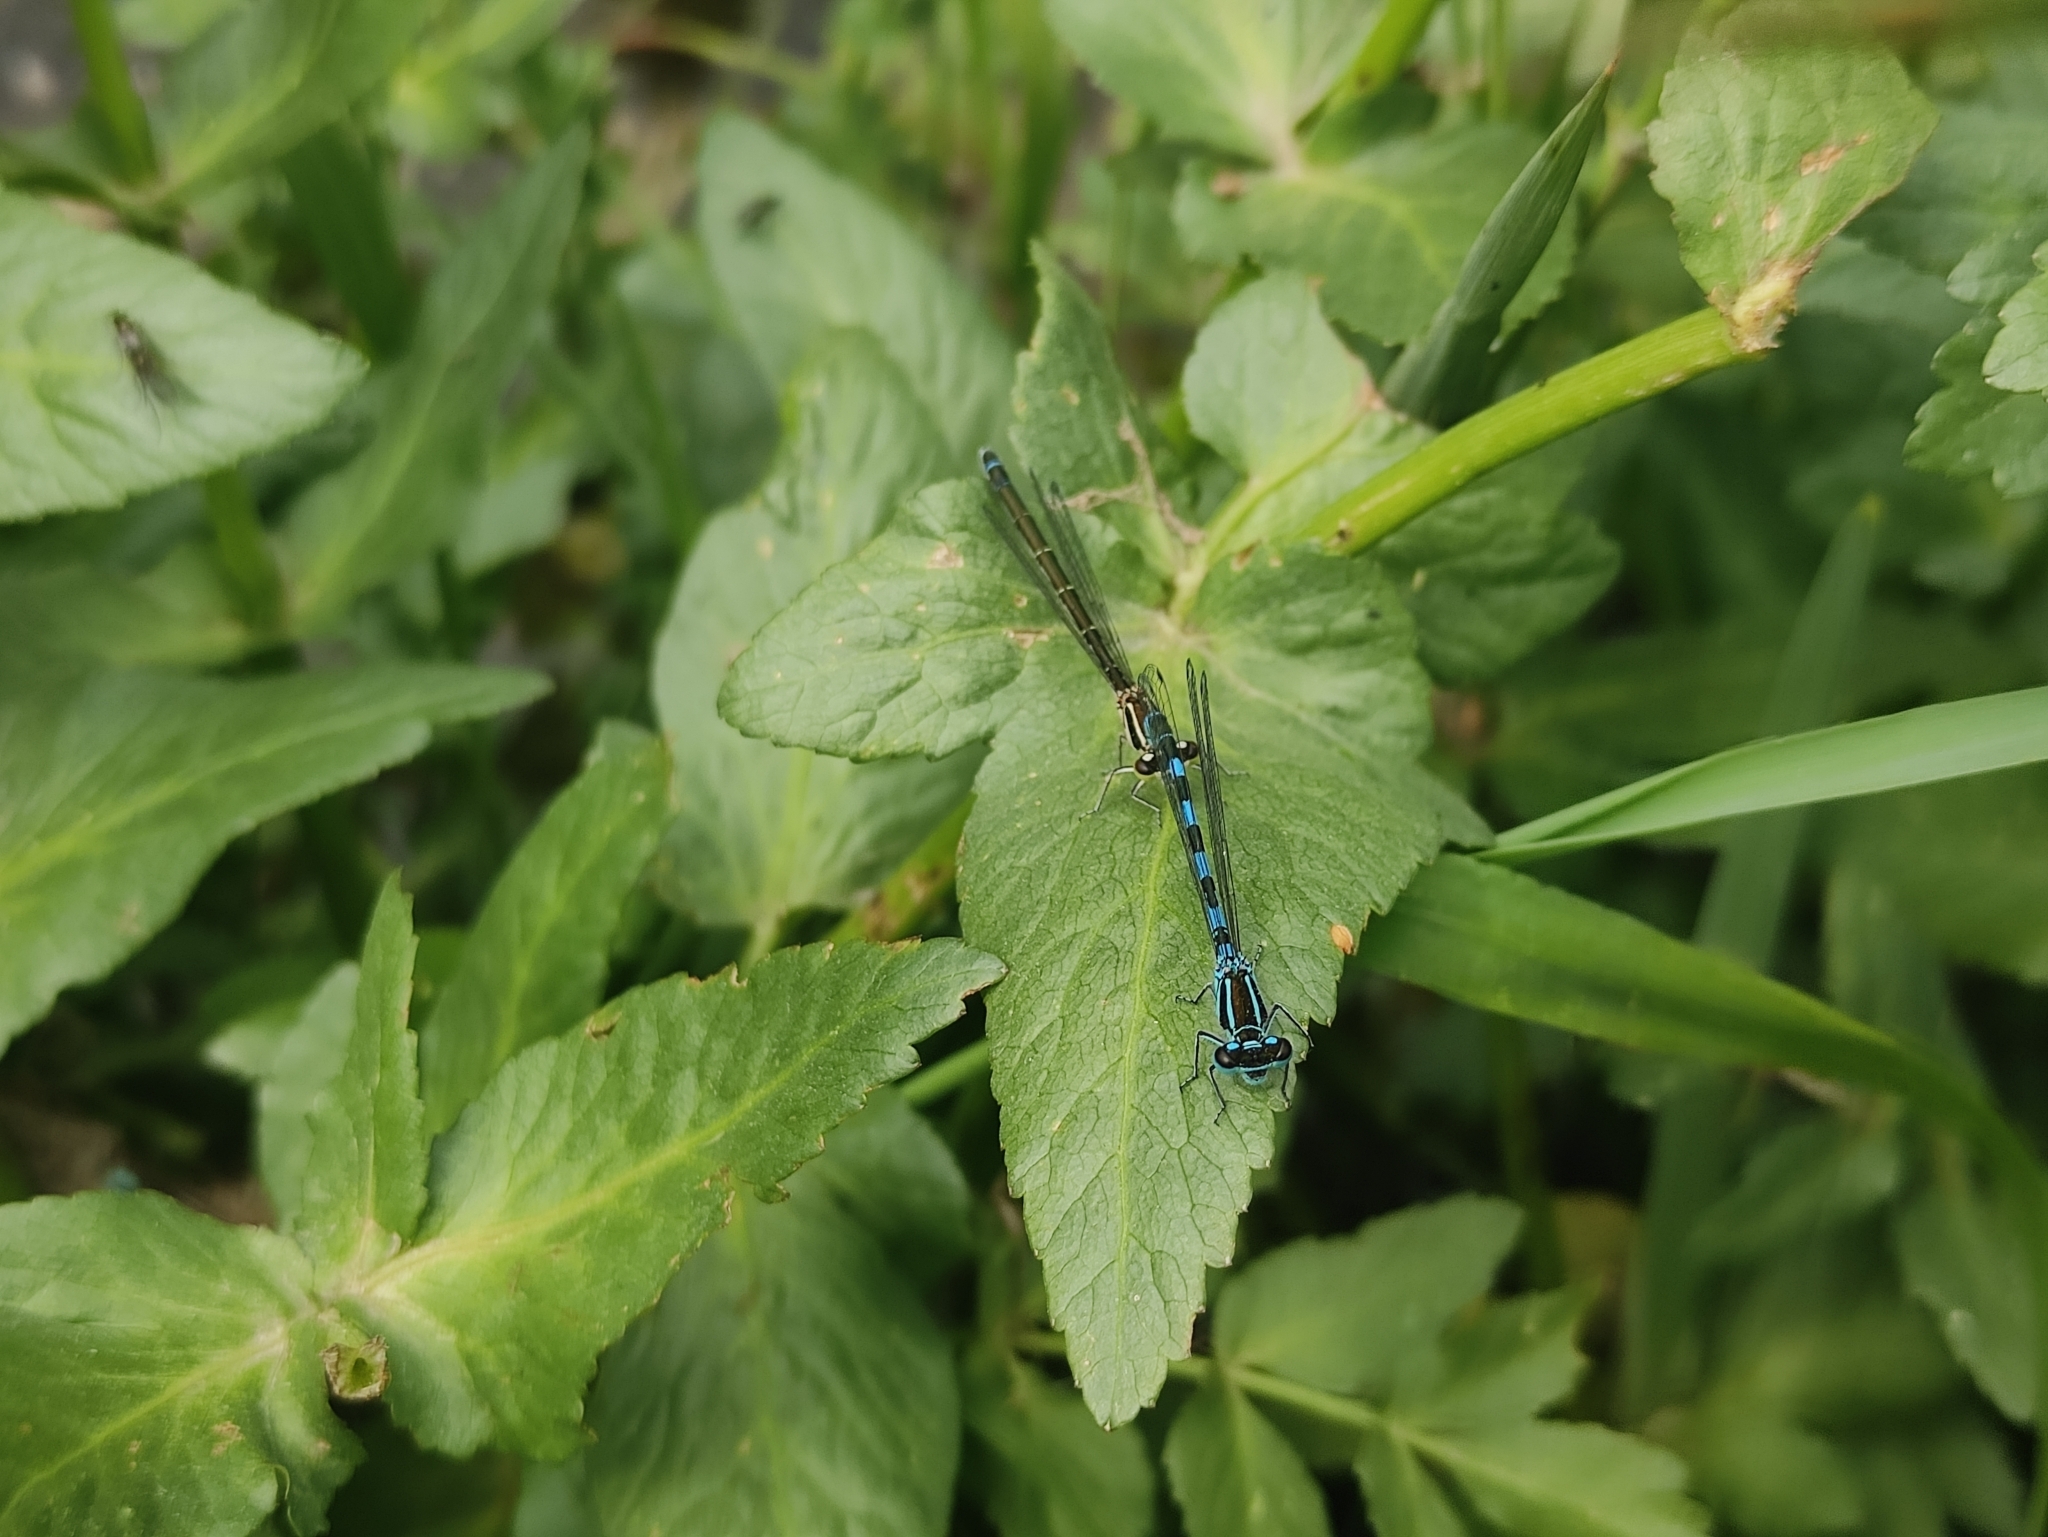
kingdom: Animalia
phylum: Arthropoda
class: Insecta
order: Odonata
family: Coenagrionidae
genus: Coenagrion
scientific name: Coenagrion mercuriale
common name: Southern damselfly
